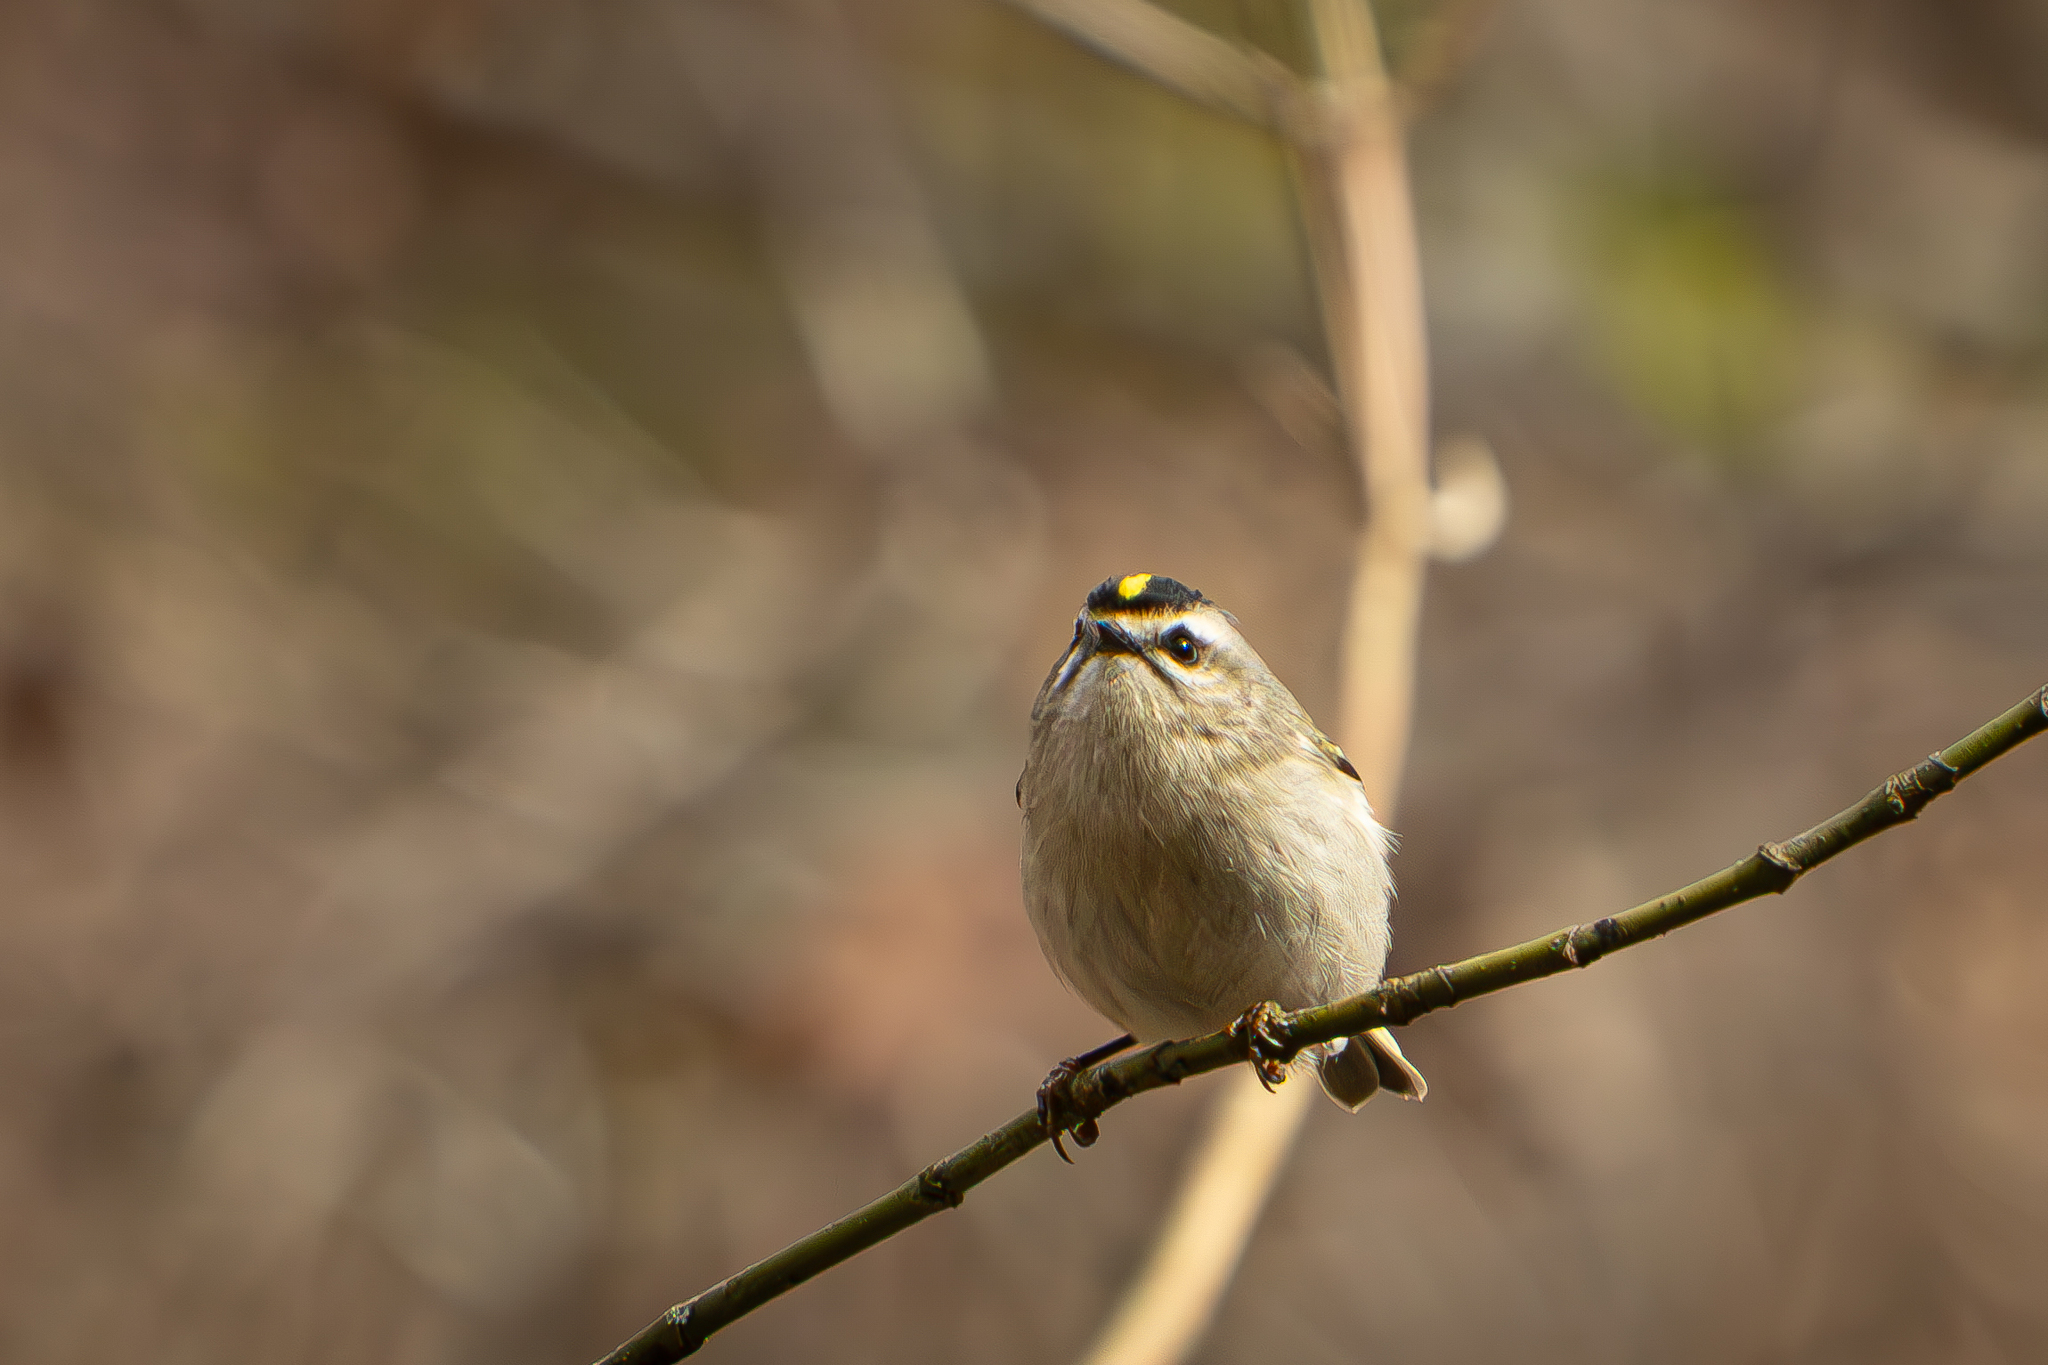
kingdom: Animalia
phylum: Chordata
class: Aves
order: Passeriformes
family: Regulidae
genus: Regulus
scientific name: Regulus satrapa
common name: Golden-crowned kinglet
